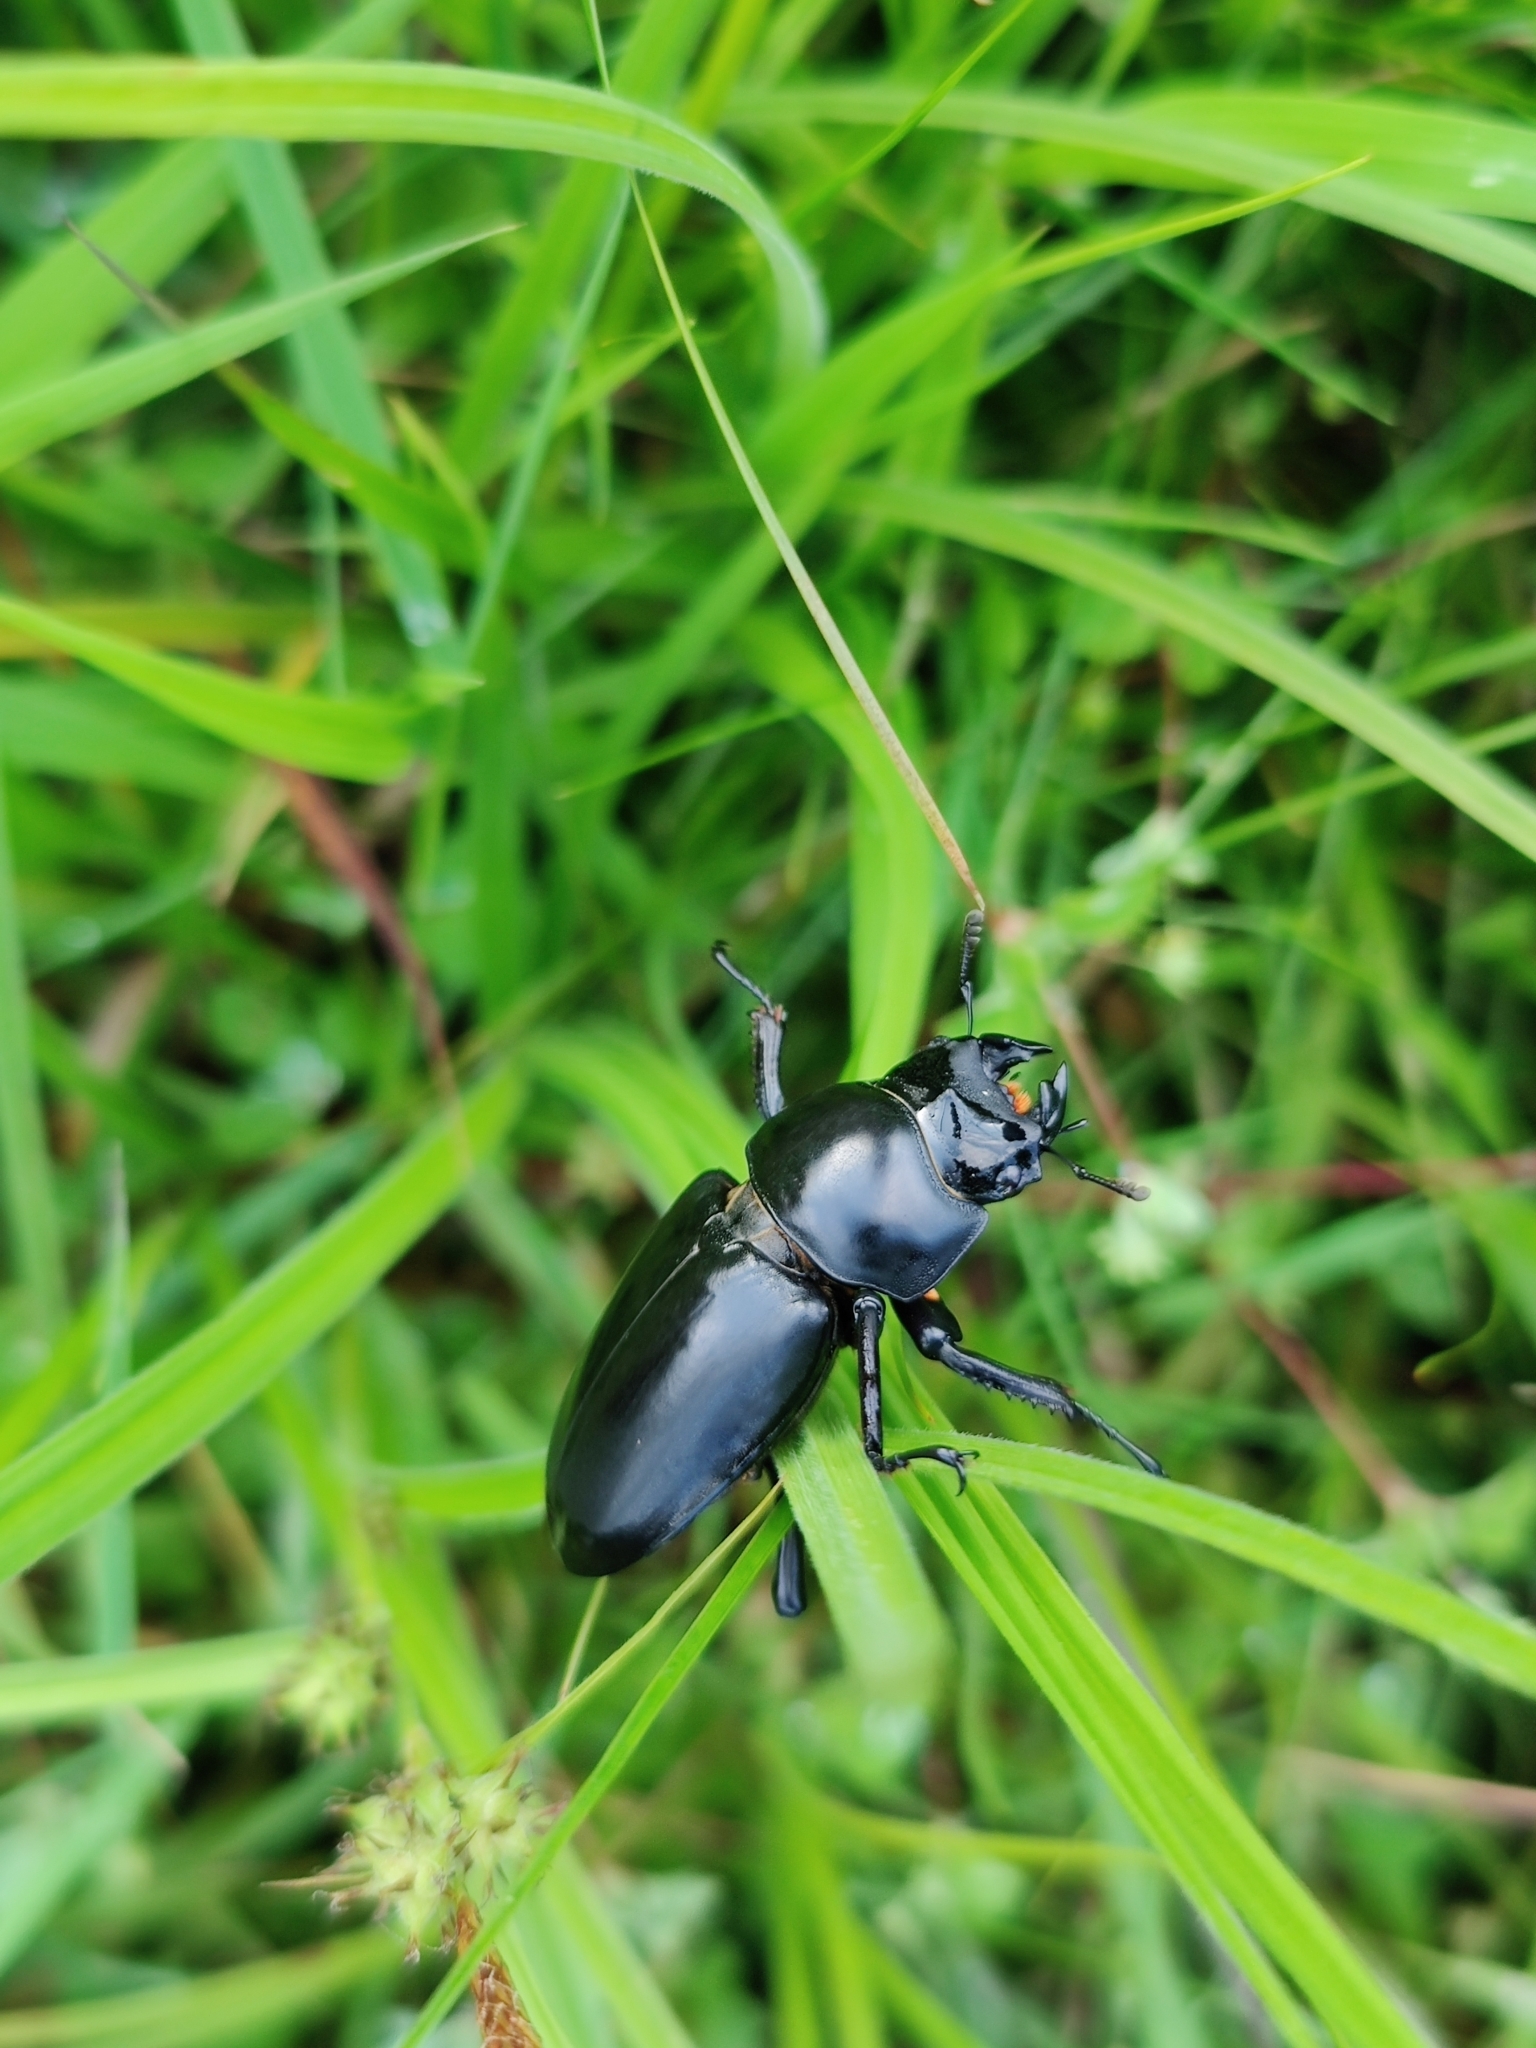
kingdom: Animalia
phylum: Arthropoda
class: Insecta
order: Coleoptera
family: Lucanidae
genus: Dorcus
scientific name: Dorcus nepalensis
